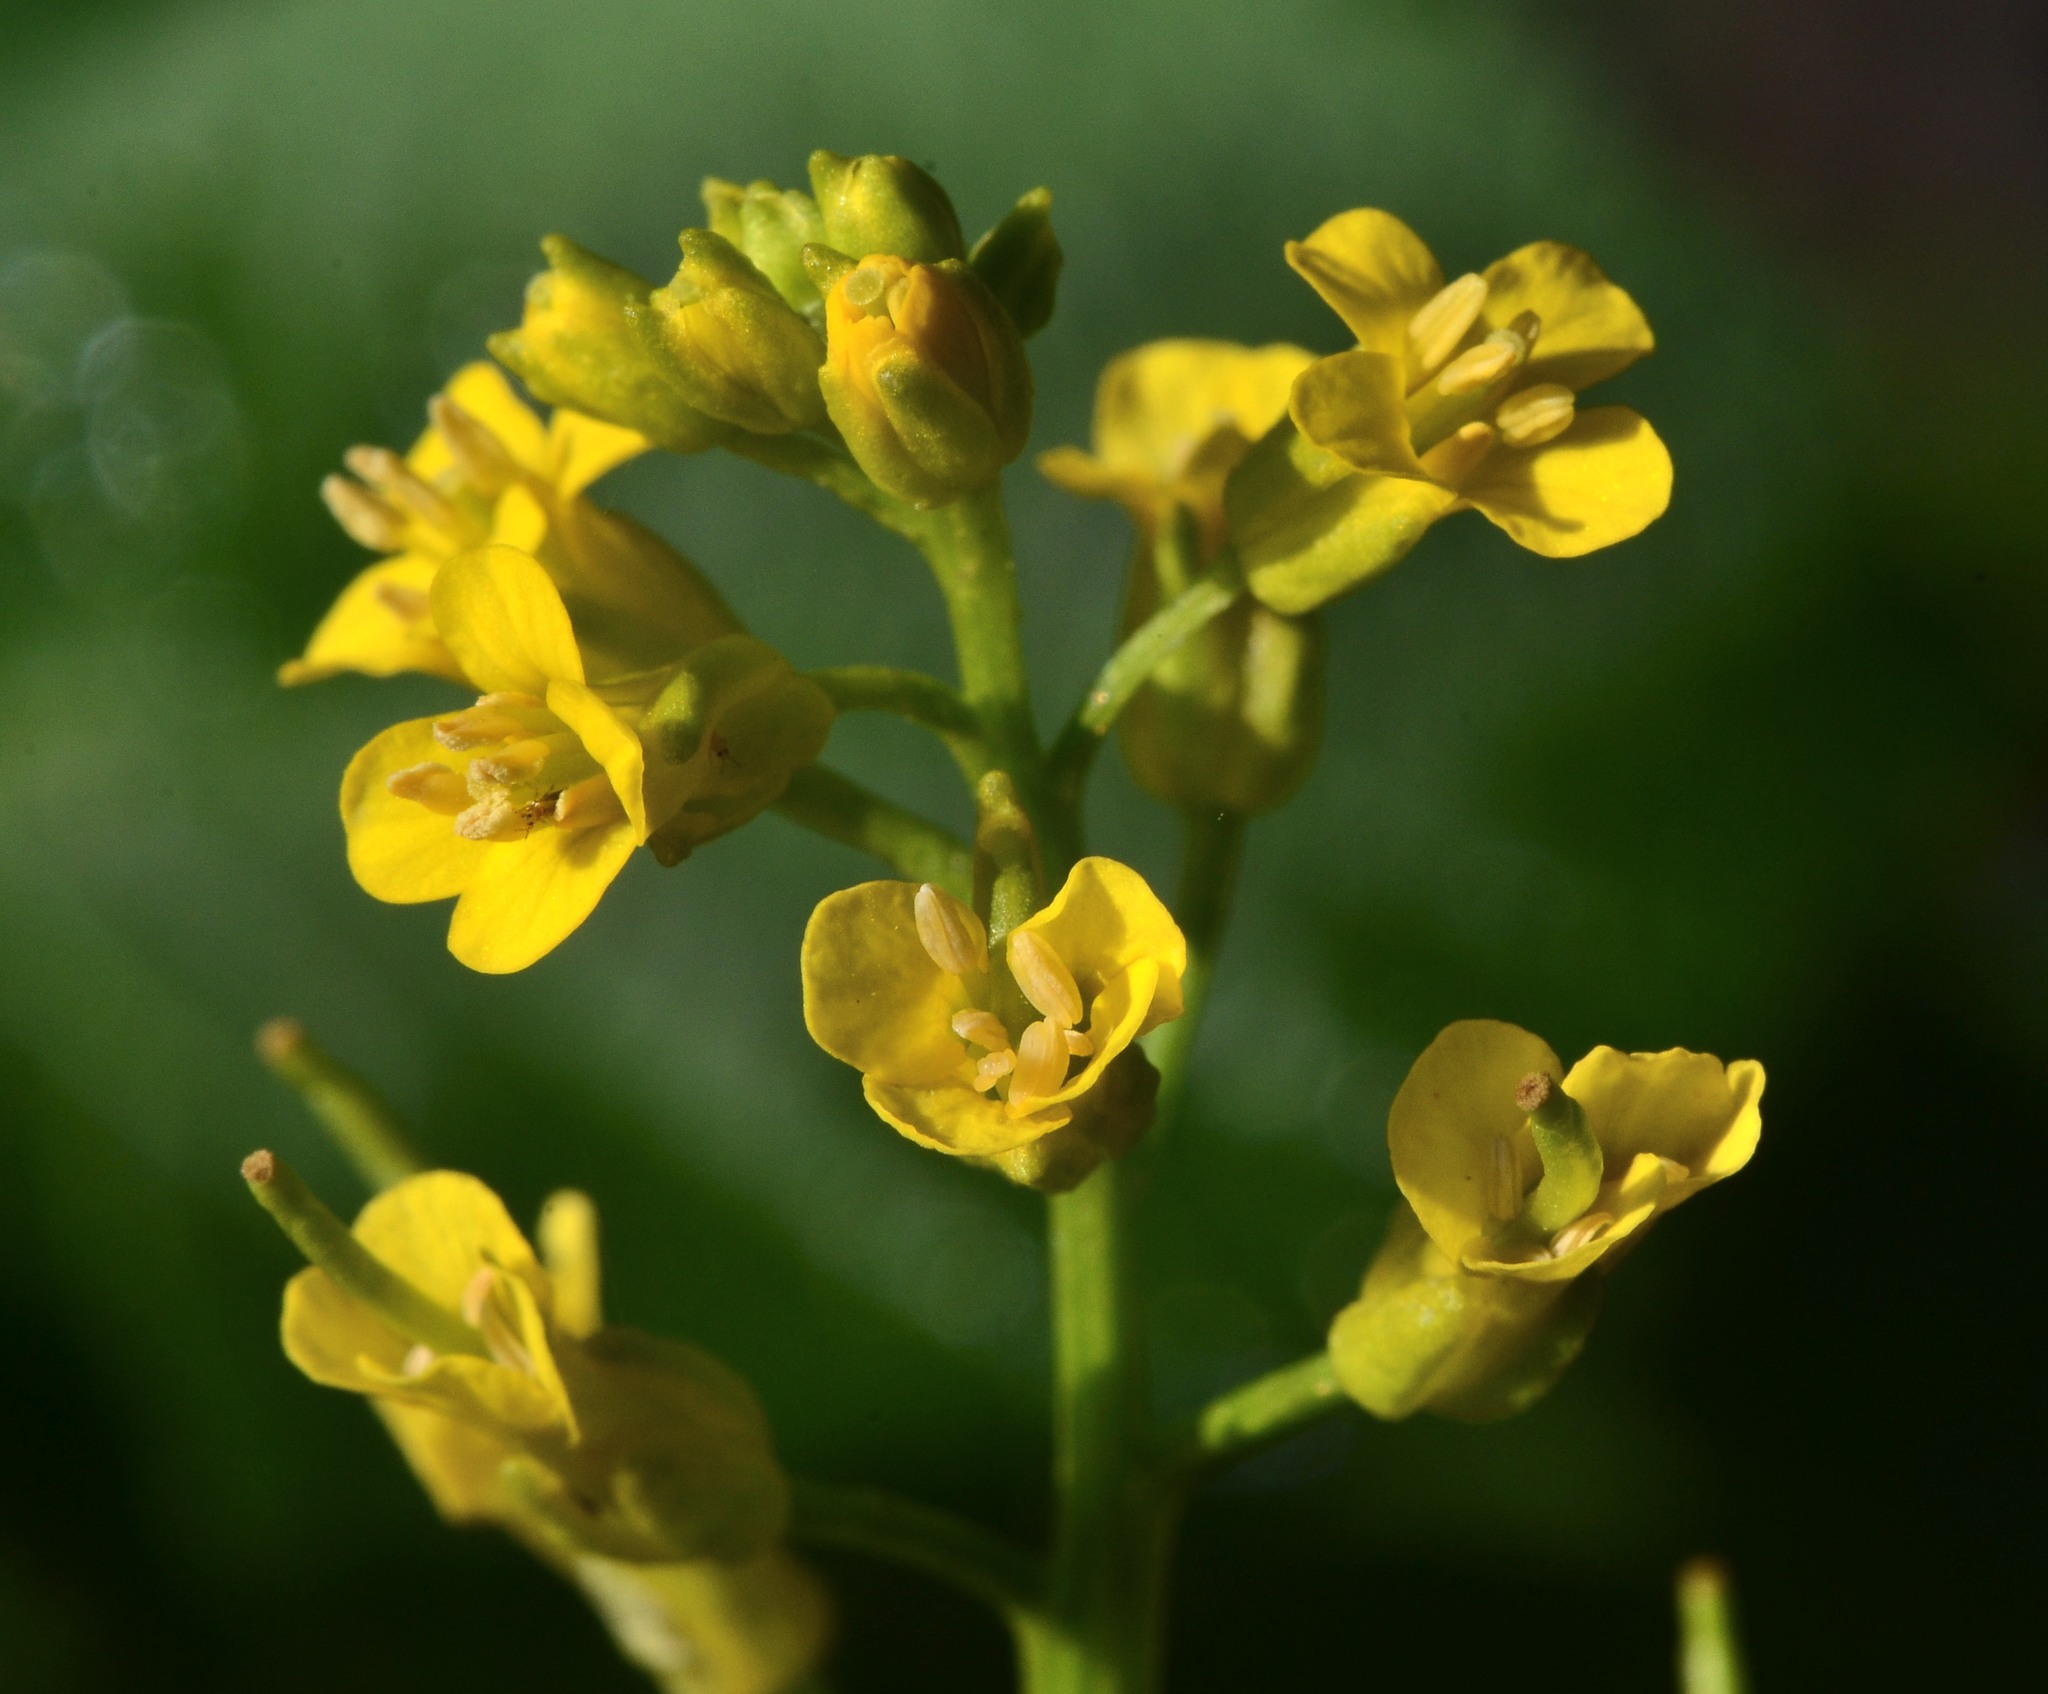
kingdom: Plantae
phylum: Tracheophyta
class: Magnoliopsida
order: Brassicales
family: Brassicaceae
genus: Barbarea
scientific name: Barbarea orthoceras
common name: American wintercress
